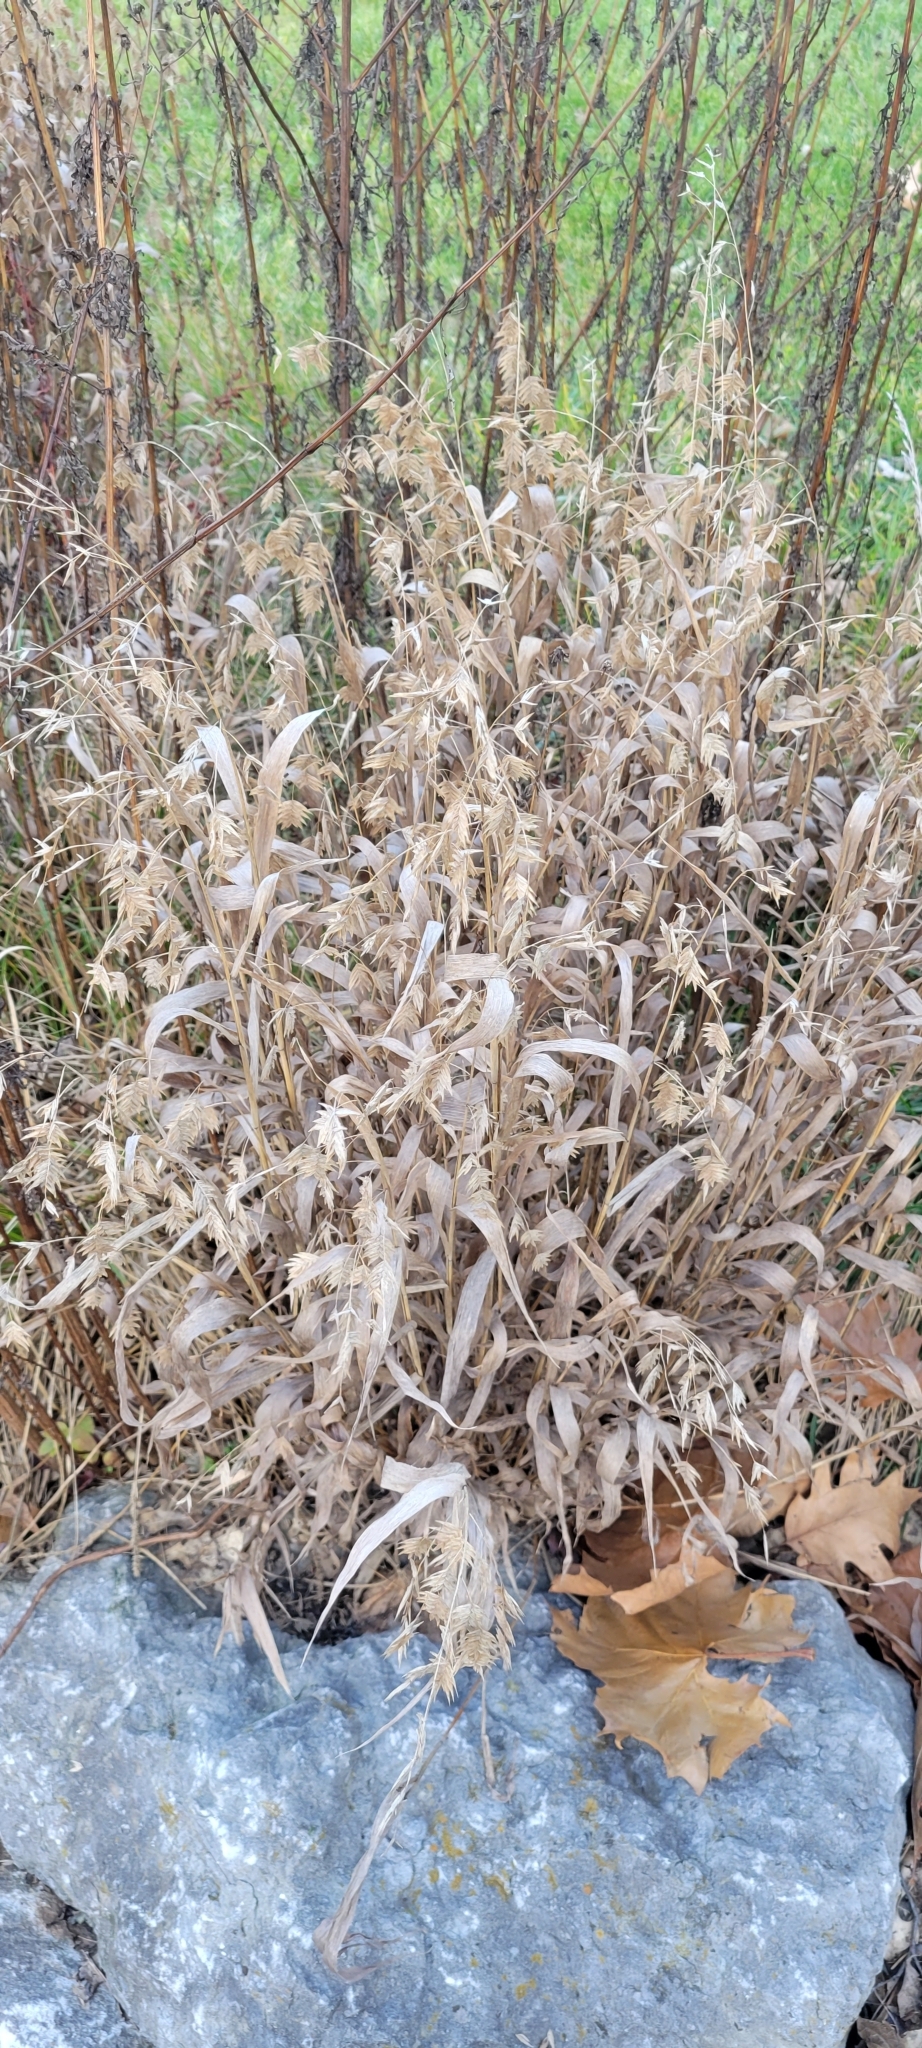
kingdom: Plantae
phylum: Tracheophyta
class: Liliopsida
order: Poales
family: Poaceae
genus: Chasmanthium
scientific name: Chasmanthium latifolium
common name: Broad-leaved chasmanthium
